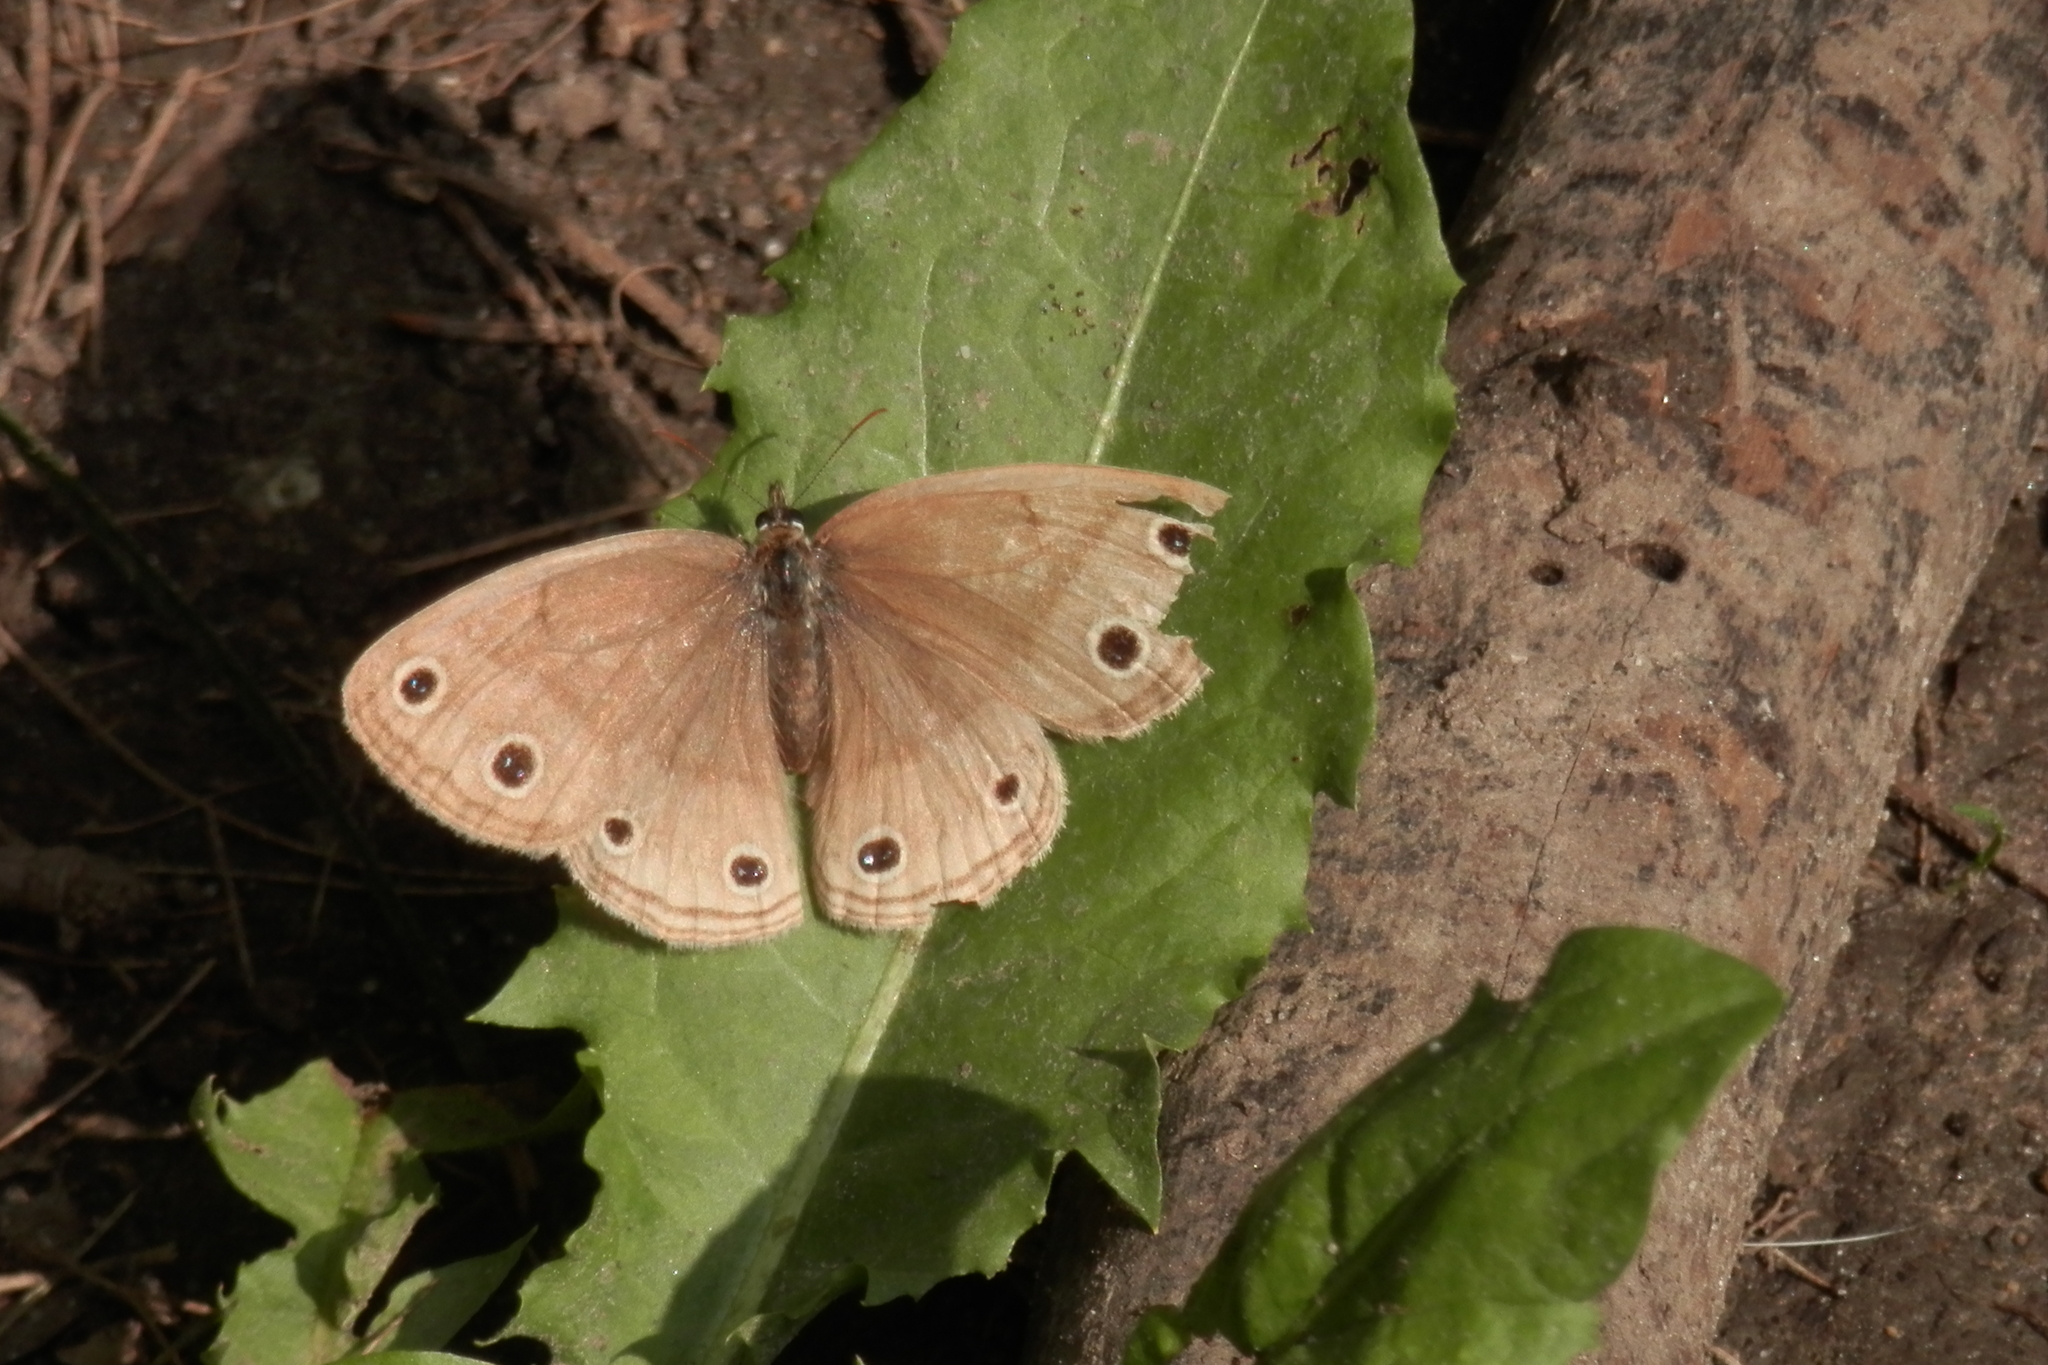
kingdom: Animalia
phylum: Arthropoda
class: Insecta
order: Lepidoptera
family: Nymphalidae
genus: Euptychia
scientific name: Euptychia cymela
